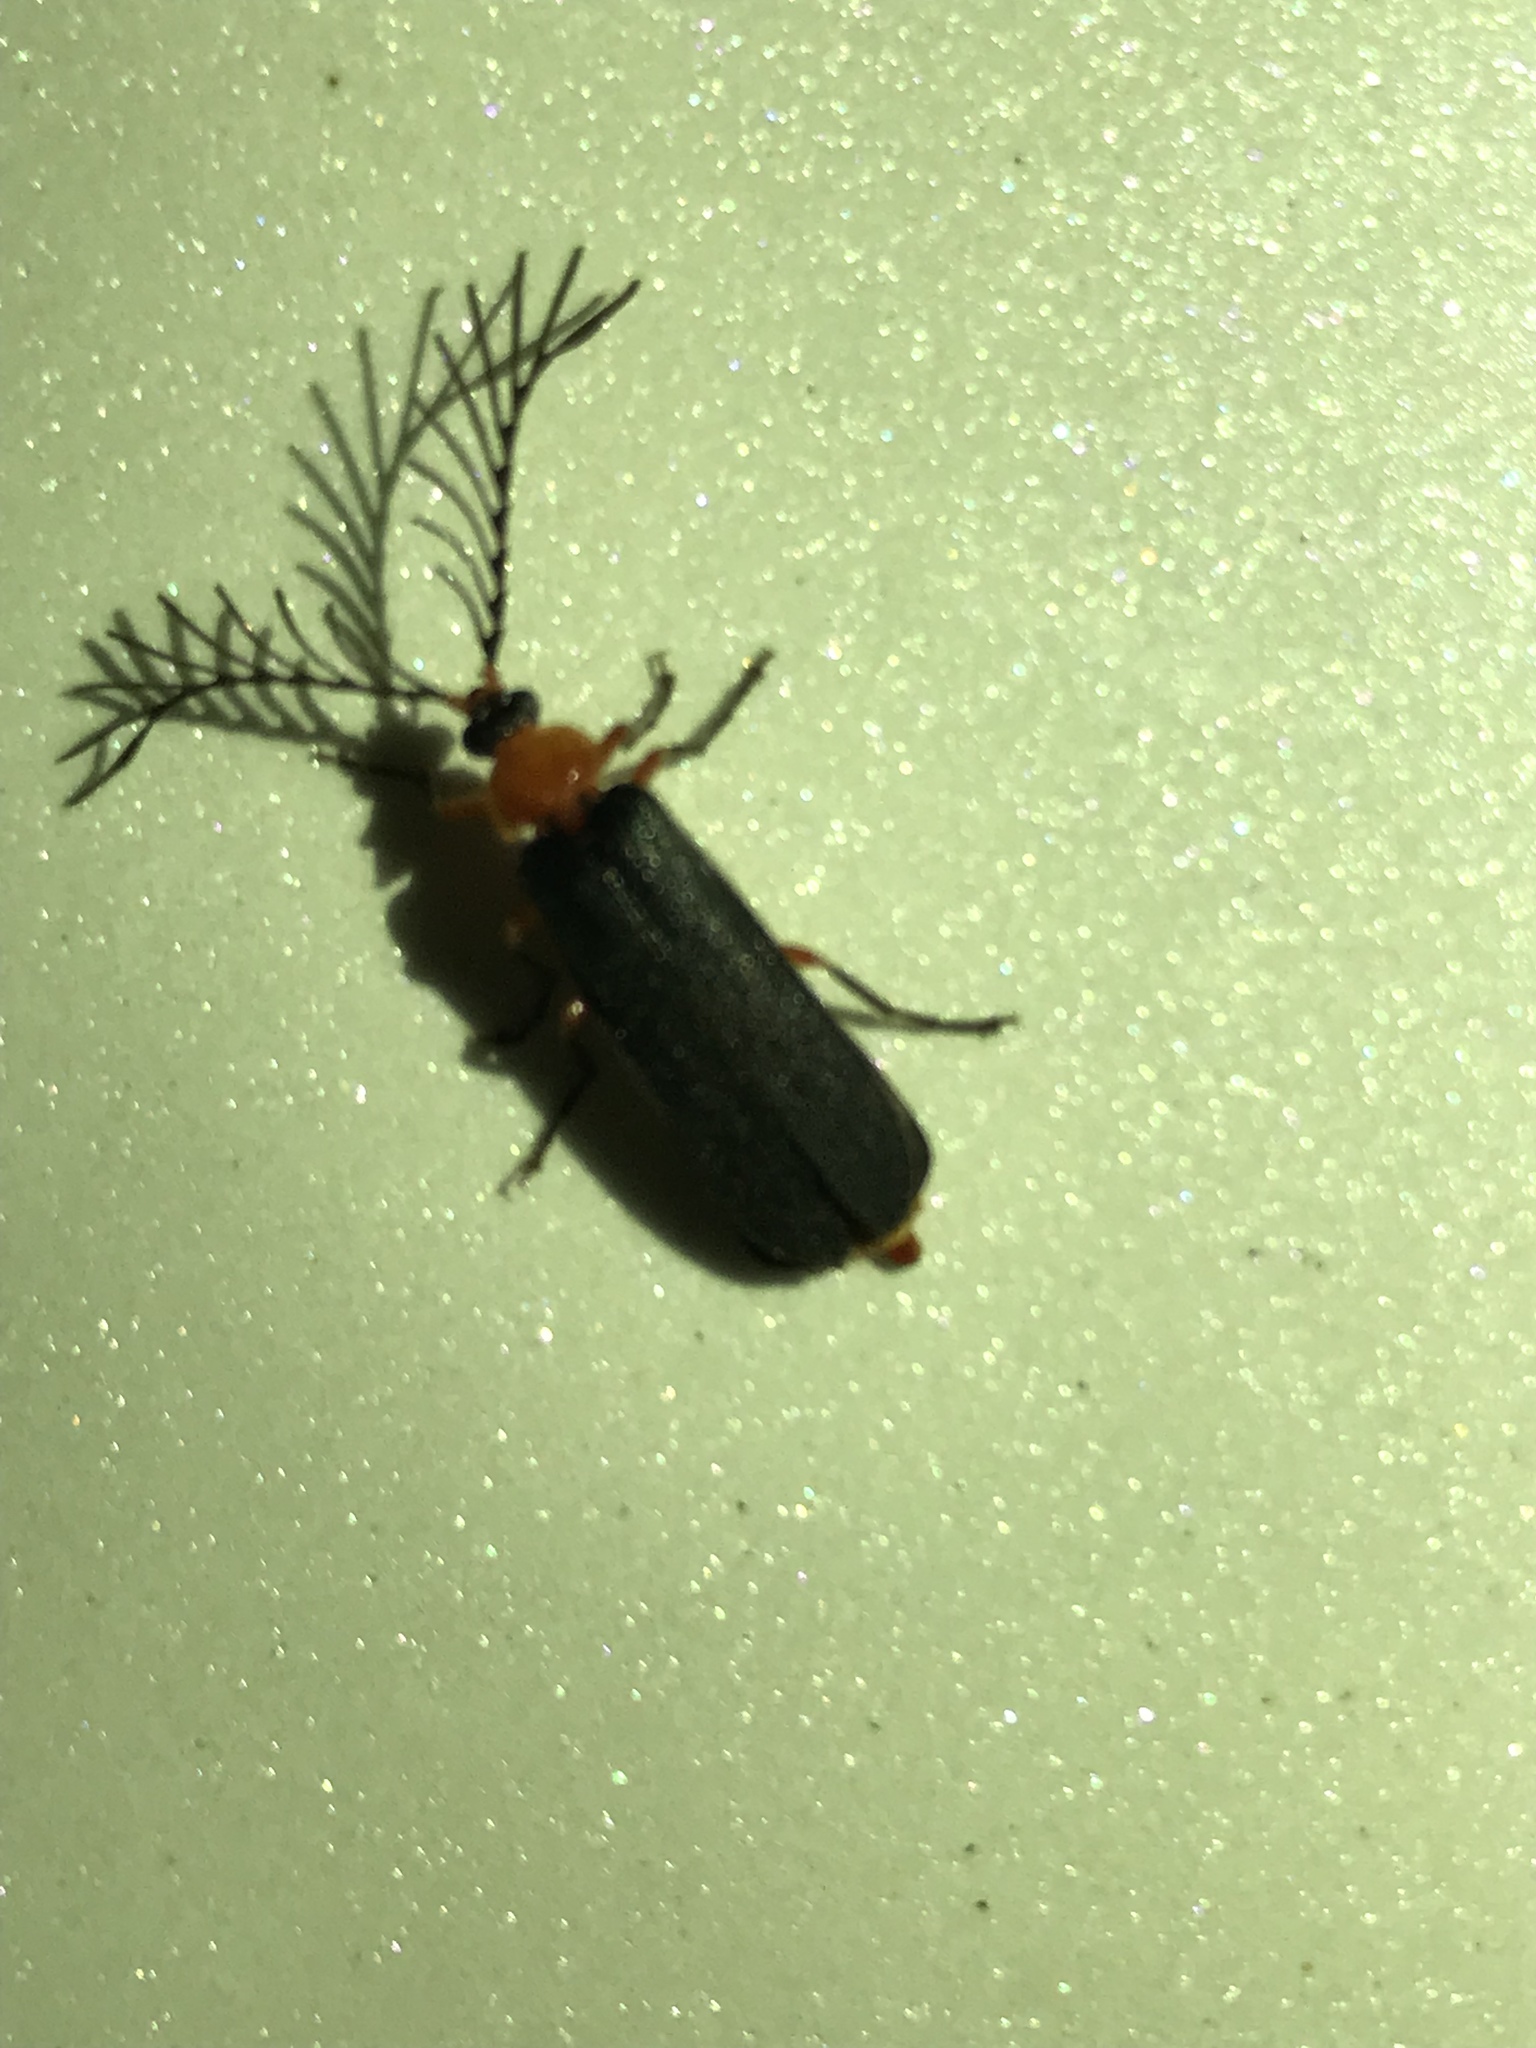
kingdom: Animalia
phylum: Arthropoda
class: Insecta
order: Coleoptera
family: Lampyridae
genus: Pterotus
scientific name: Pterotus obscuripennis
